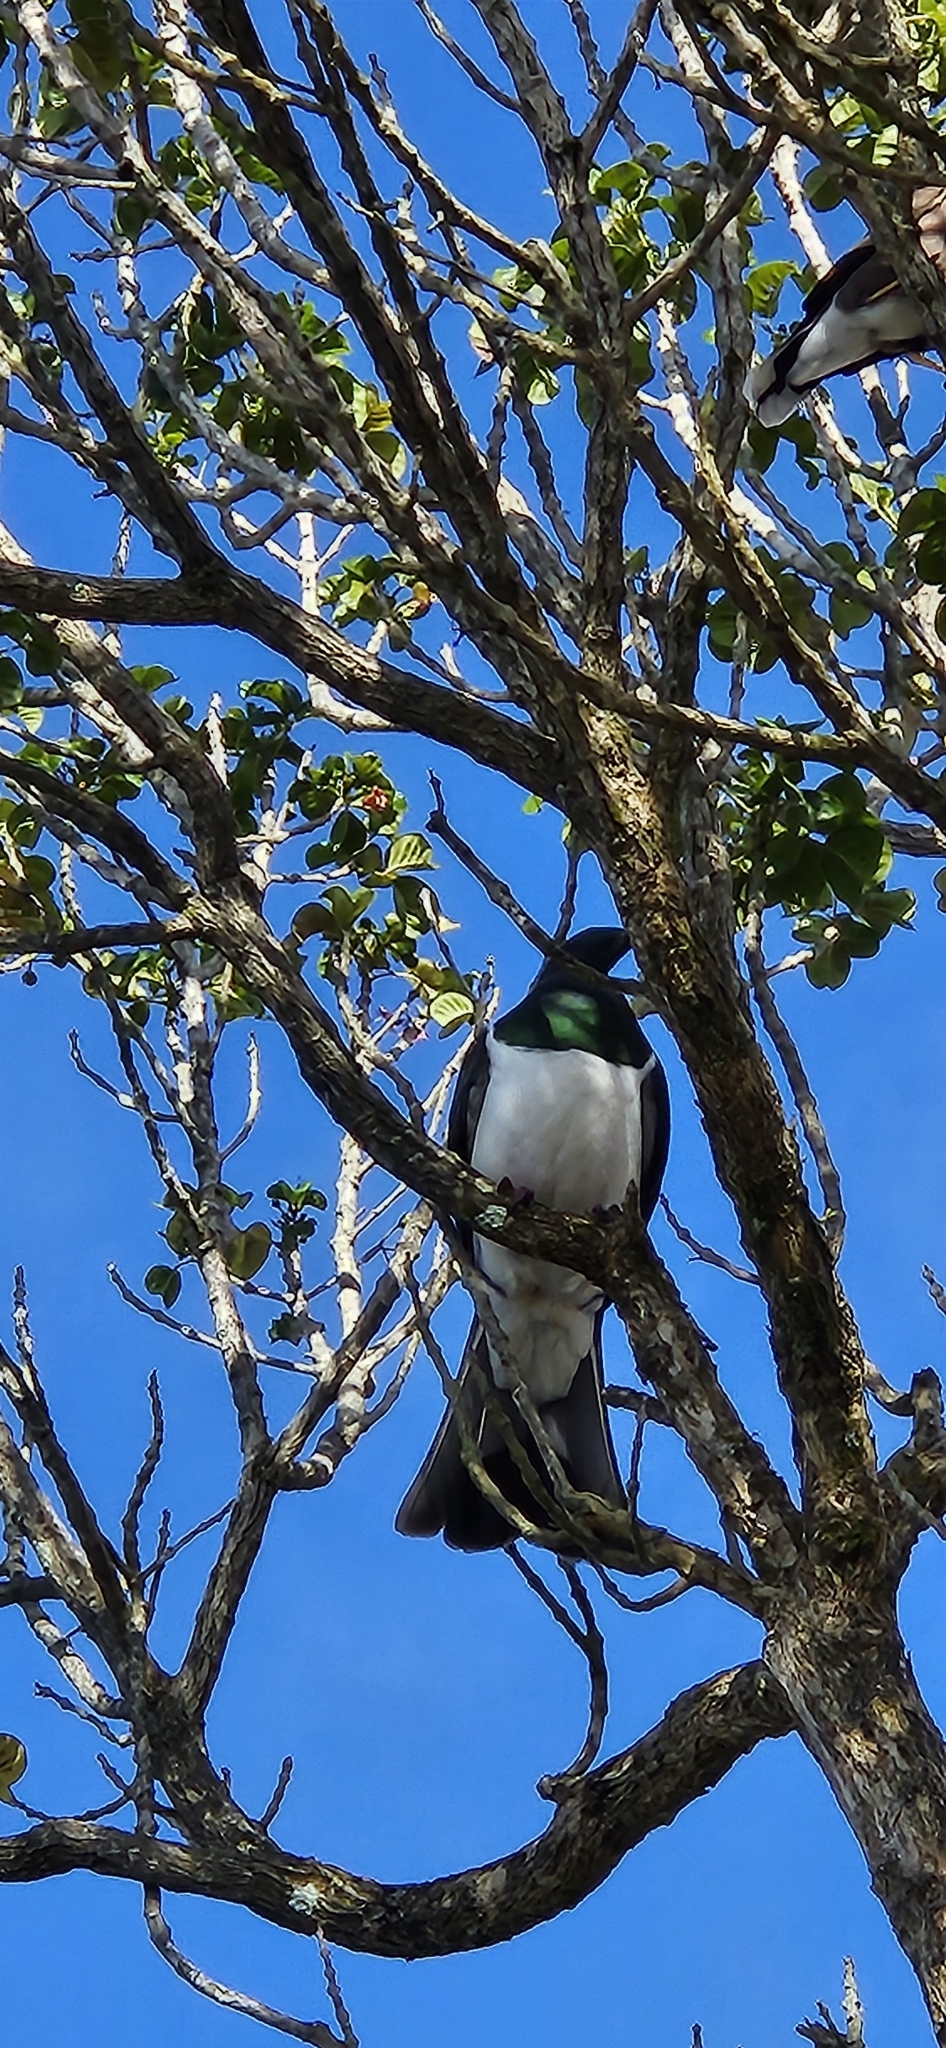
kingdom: Animalia
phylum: Chordata
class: Aves
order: Columbiformes
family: Columbidae
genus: Hemiphaga
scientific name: Hemiphaga novaeseelandiae
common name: New zealand pigeon
